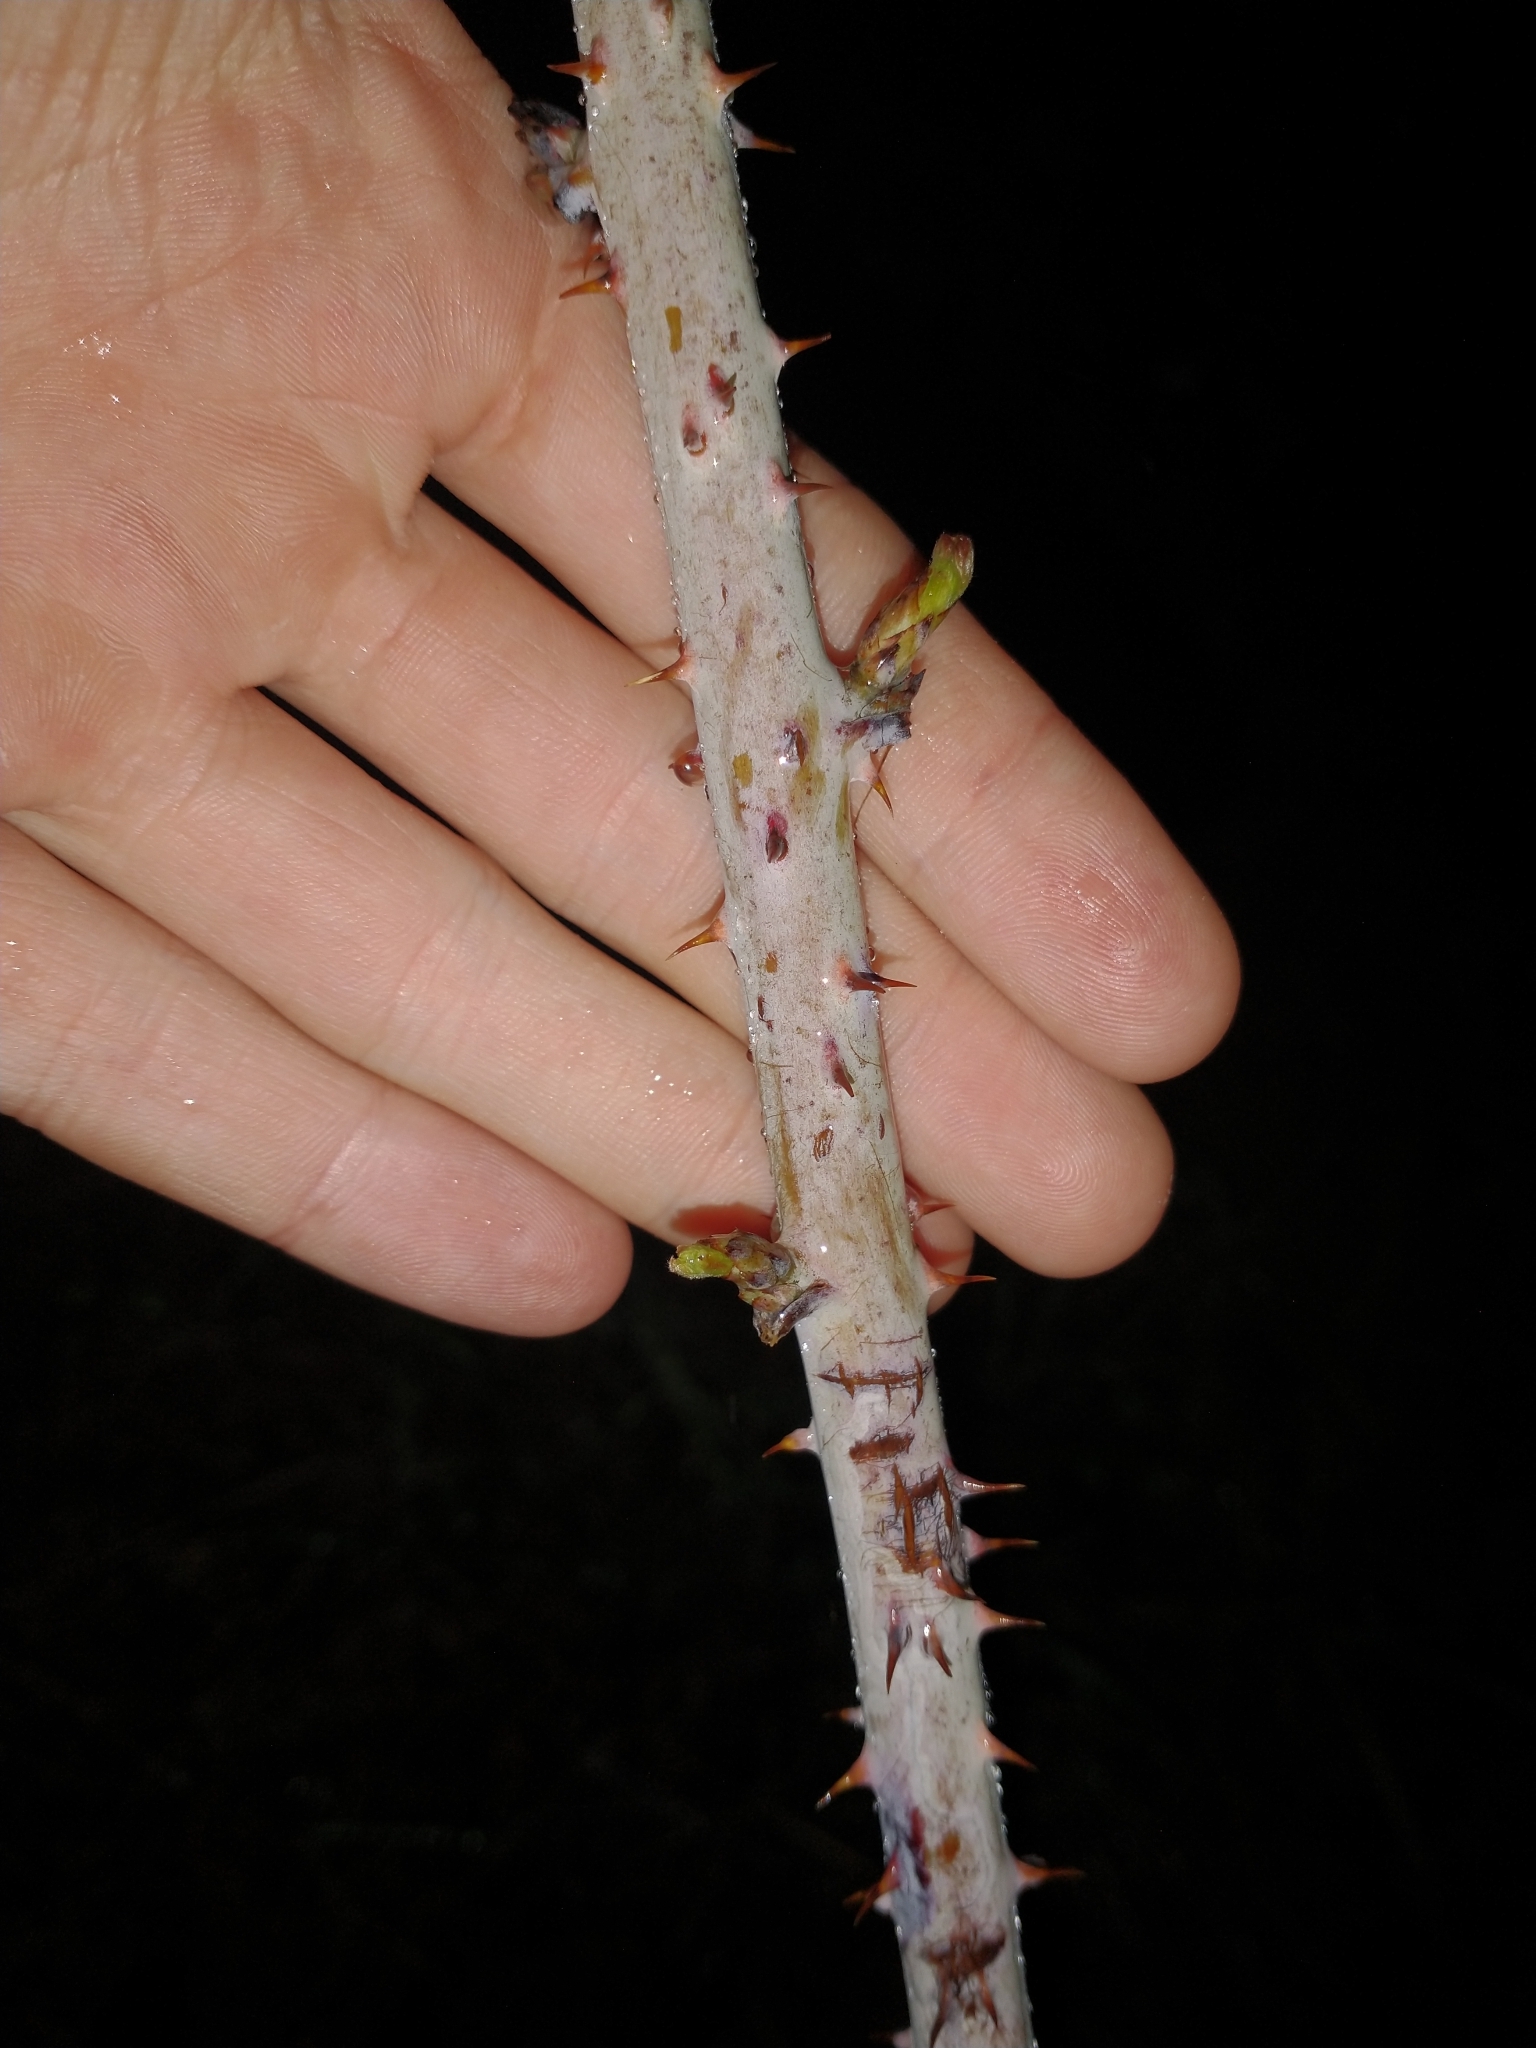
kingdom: Plantae
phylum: Tracheophyta
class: Magnoliopsida
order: Rosales
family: Rosaceae
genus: Rubus
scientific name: Rubus leucodermis
